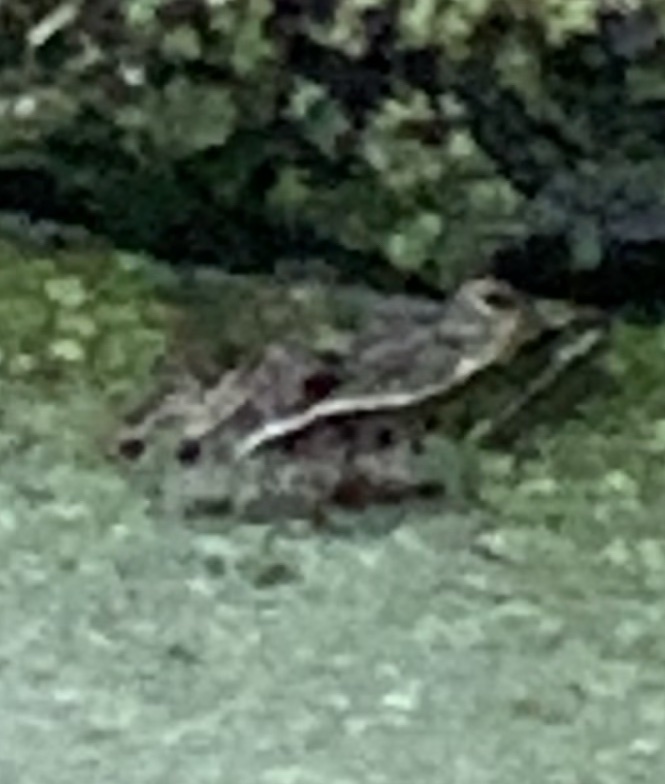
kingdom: Animalia
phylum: Chordata
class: Amphibia
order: Anura
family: Ranidae
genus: Lithobates
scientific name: Lithobates pipiens
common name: Northern leopard frog
